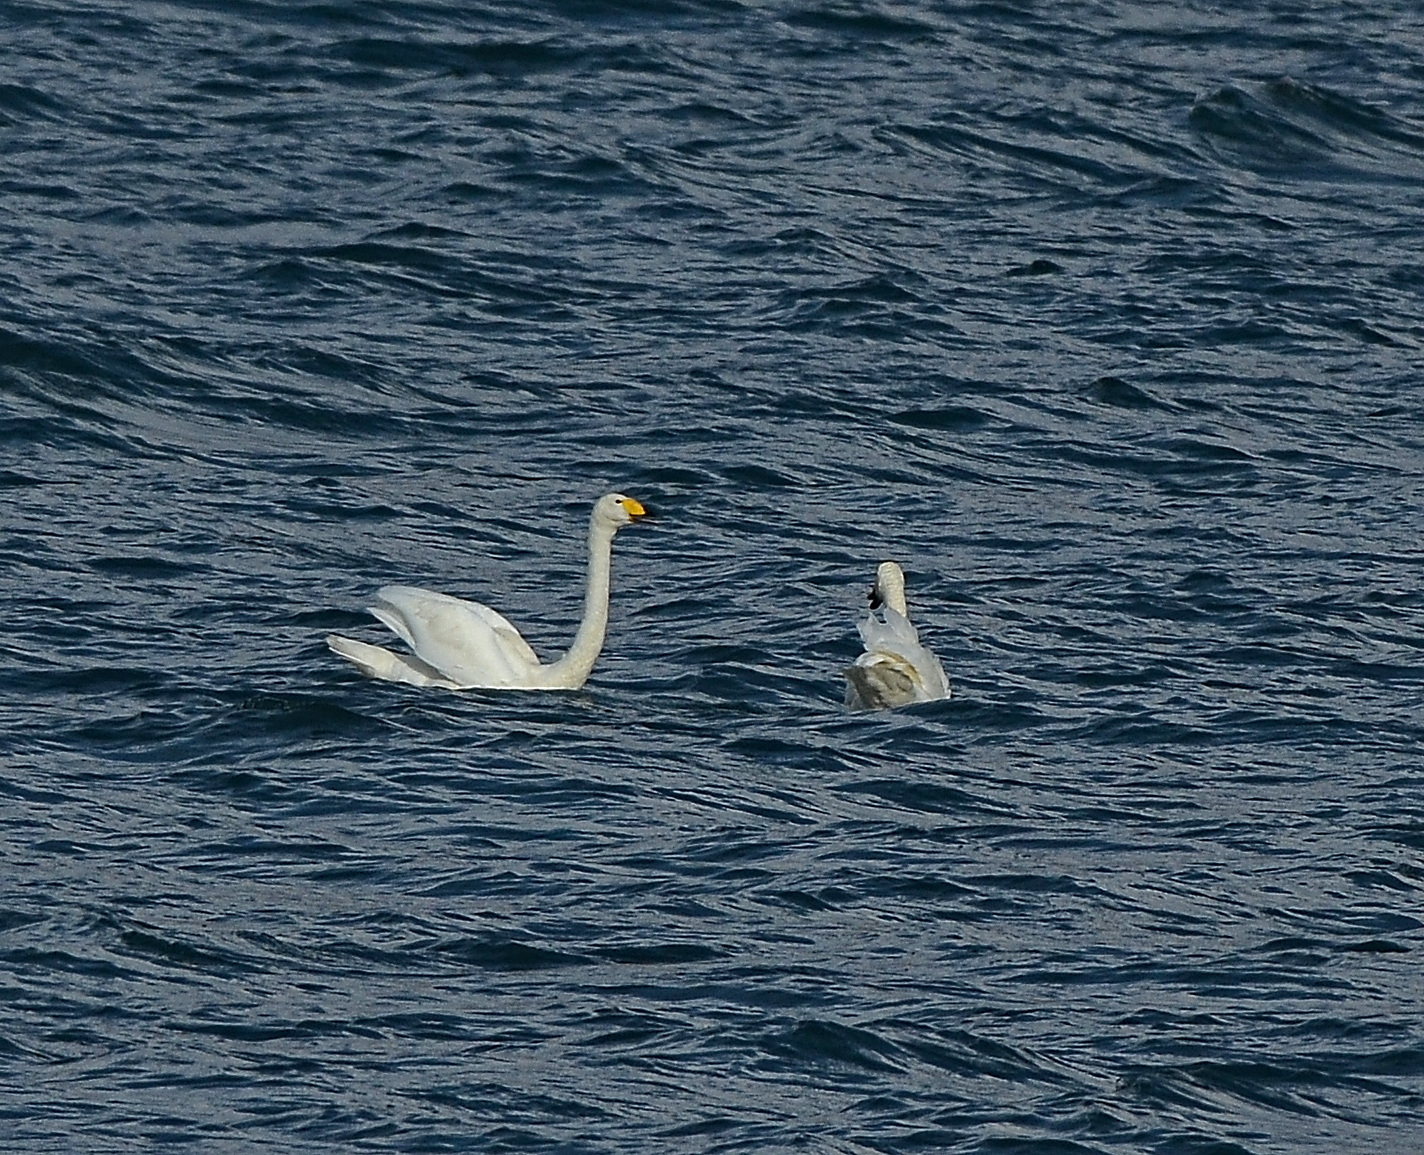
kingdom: Animalia
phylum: Chordata
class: Aves
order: Anseriformes
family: Anatidae
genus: Cygnus
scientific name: Cygnus cygnus
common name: Whooper swan
